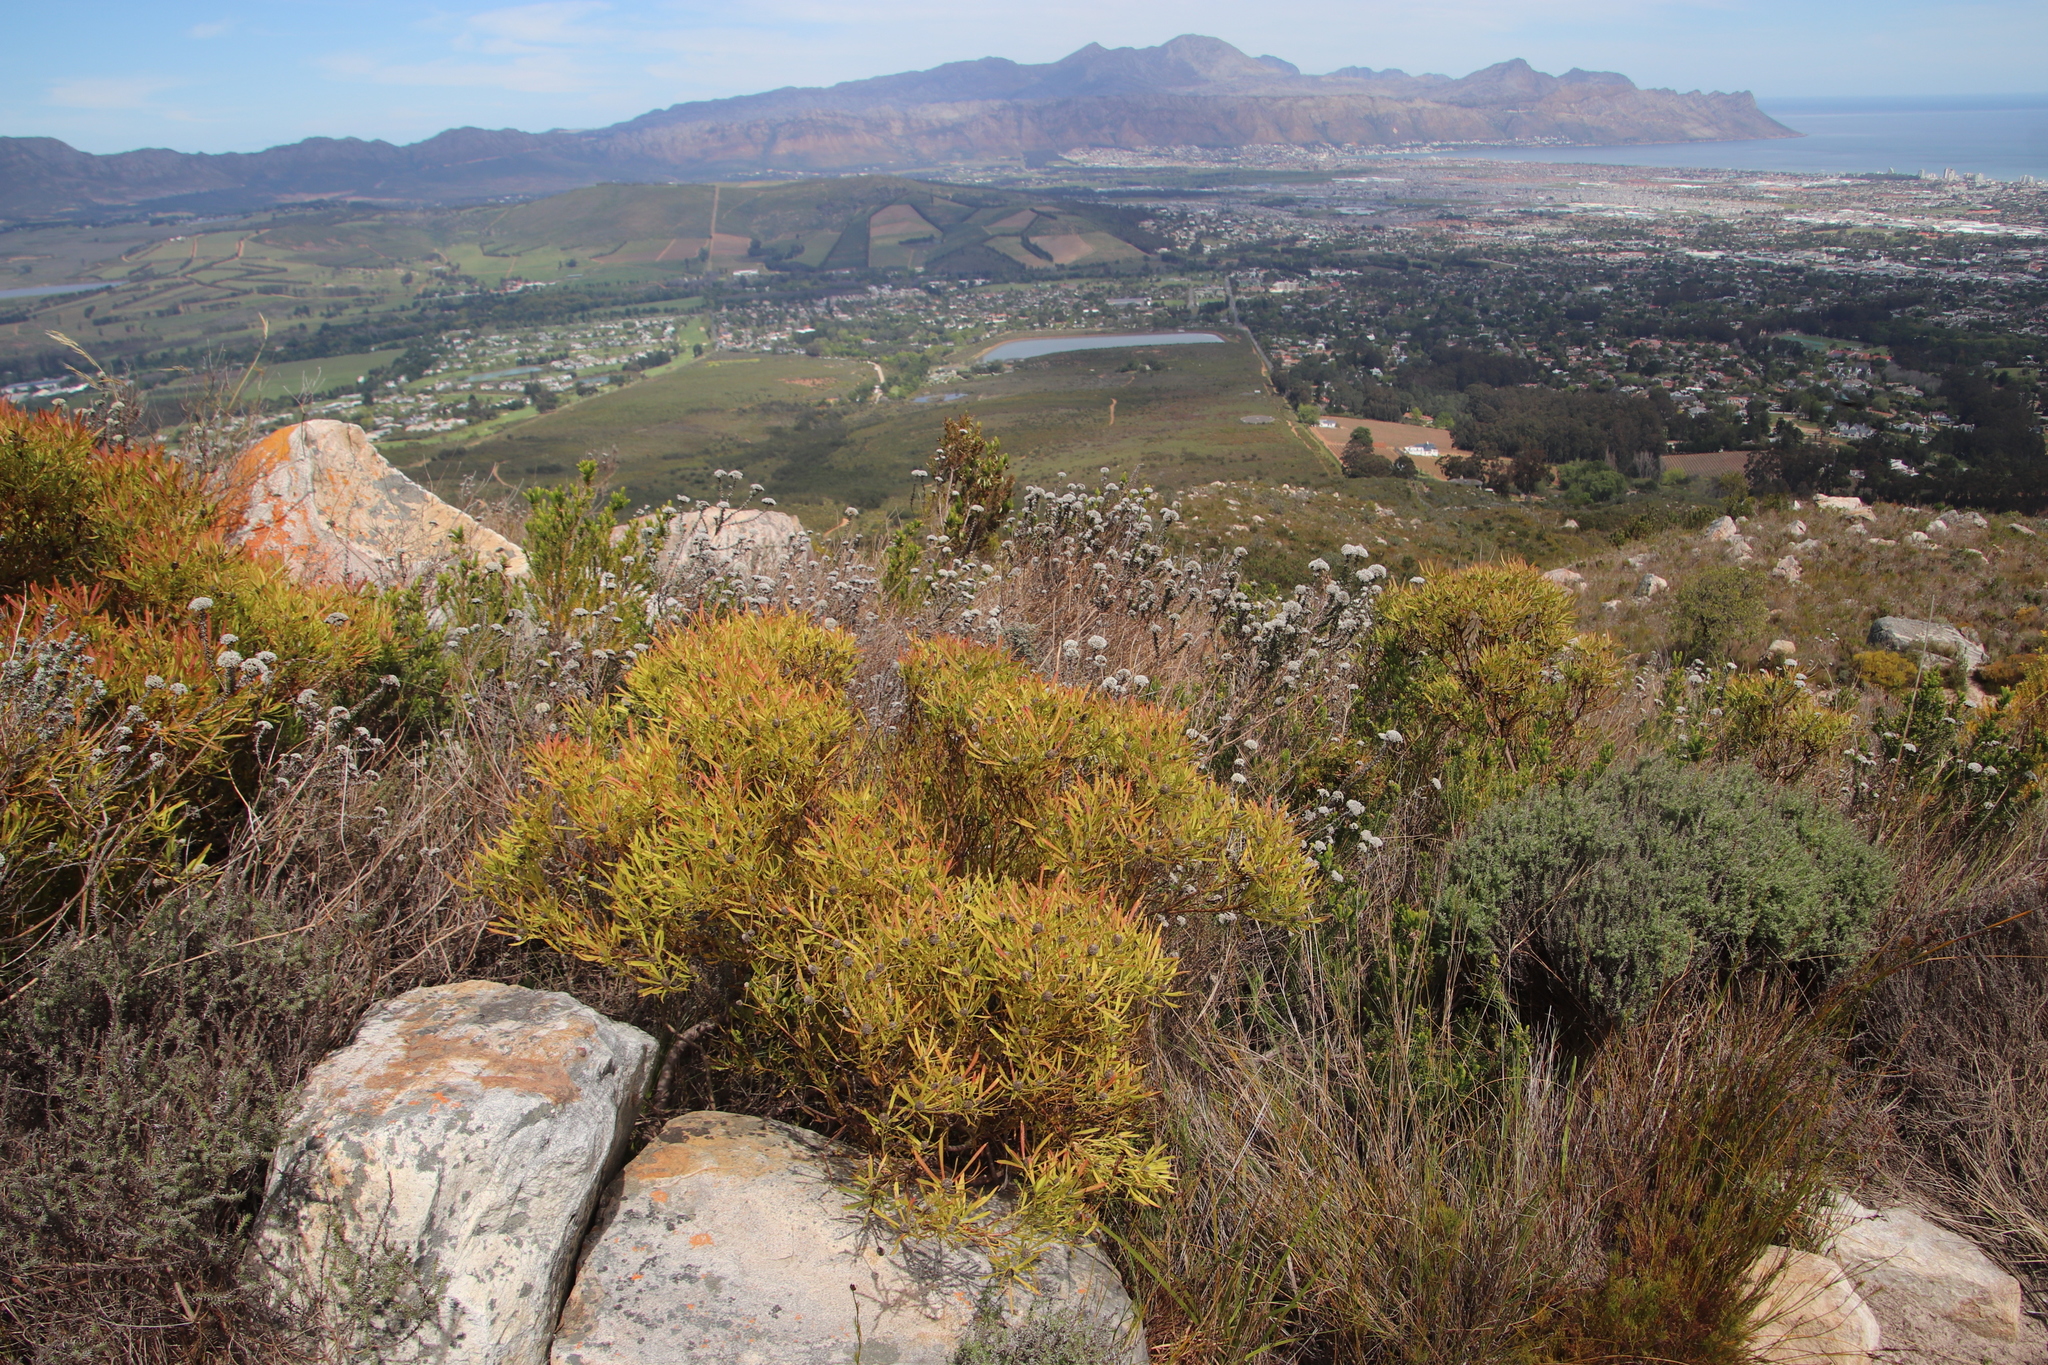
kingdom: Plantae
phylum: Tracheophyta
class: Magnoliopsida
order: Proteales
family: Proteaceae
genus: Leucadendron
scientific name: Leucadendron salignum
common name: Common sunshine conebush
